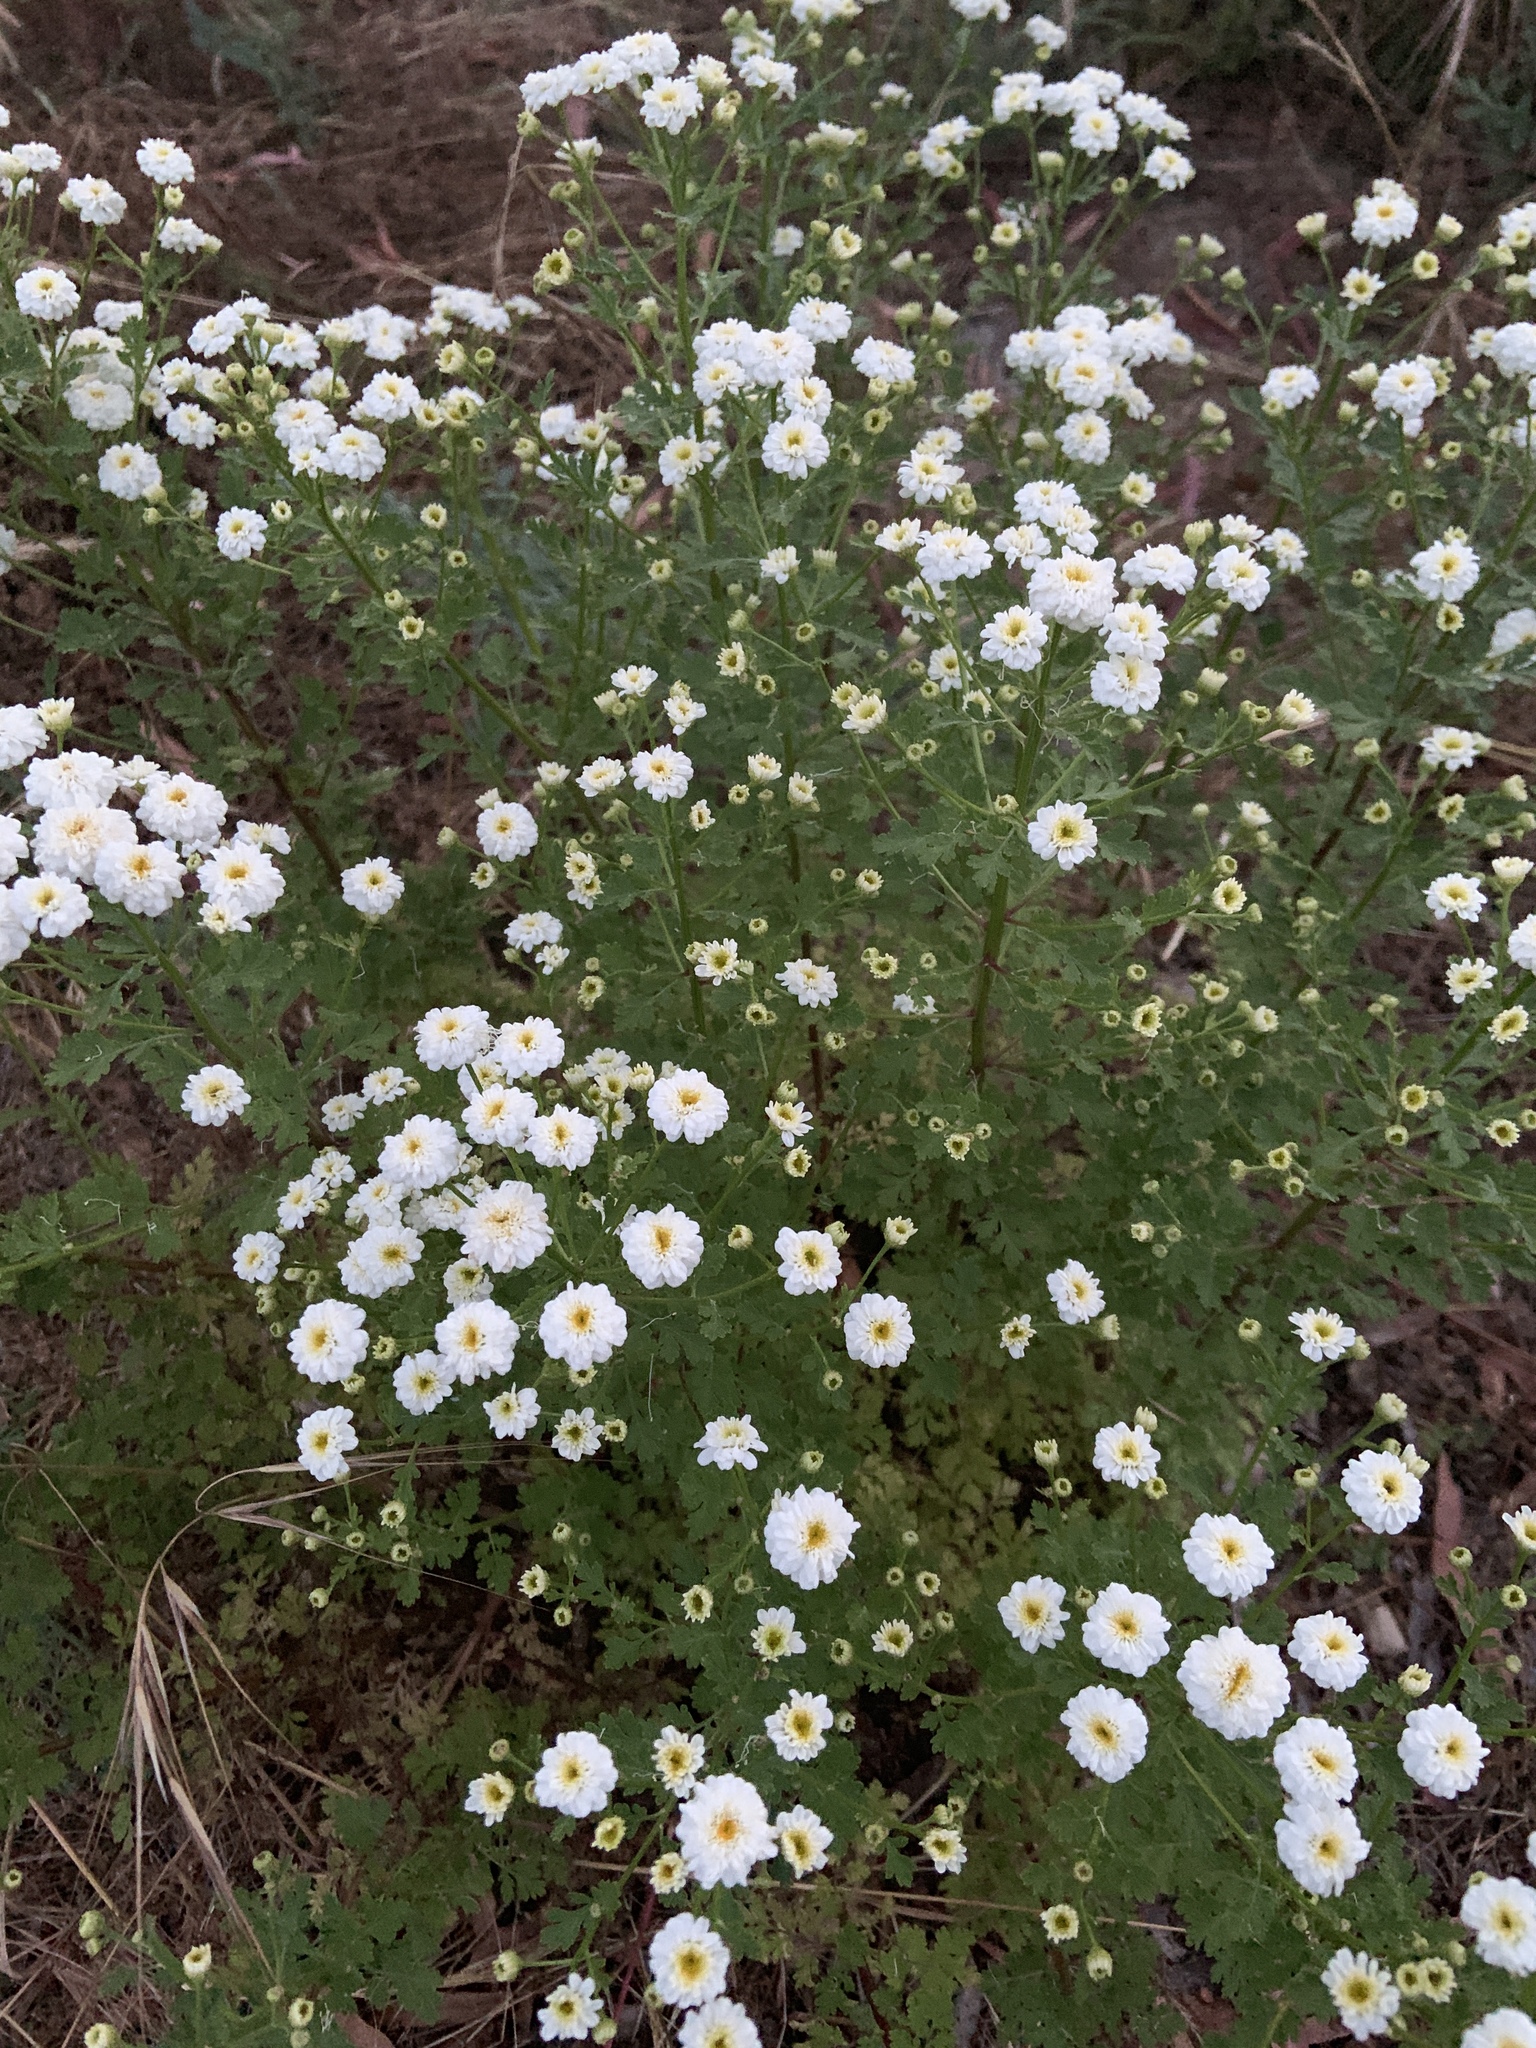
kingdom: Plantae
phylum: Tracheophyta
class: Magnoliopsida
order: Asterales
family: Asteraceae
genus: Tanacetum
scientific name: Tanacetum parthenium
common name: Feverfew
